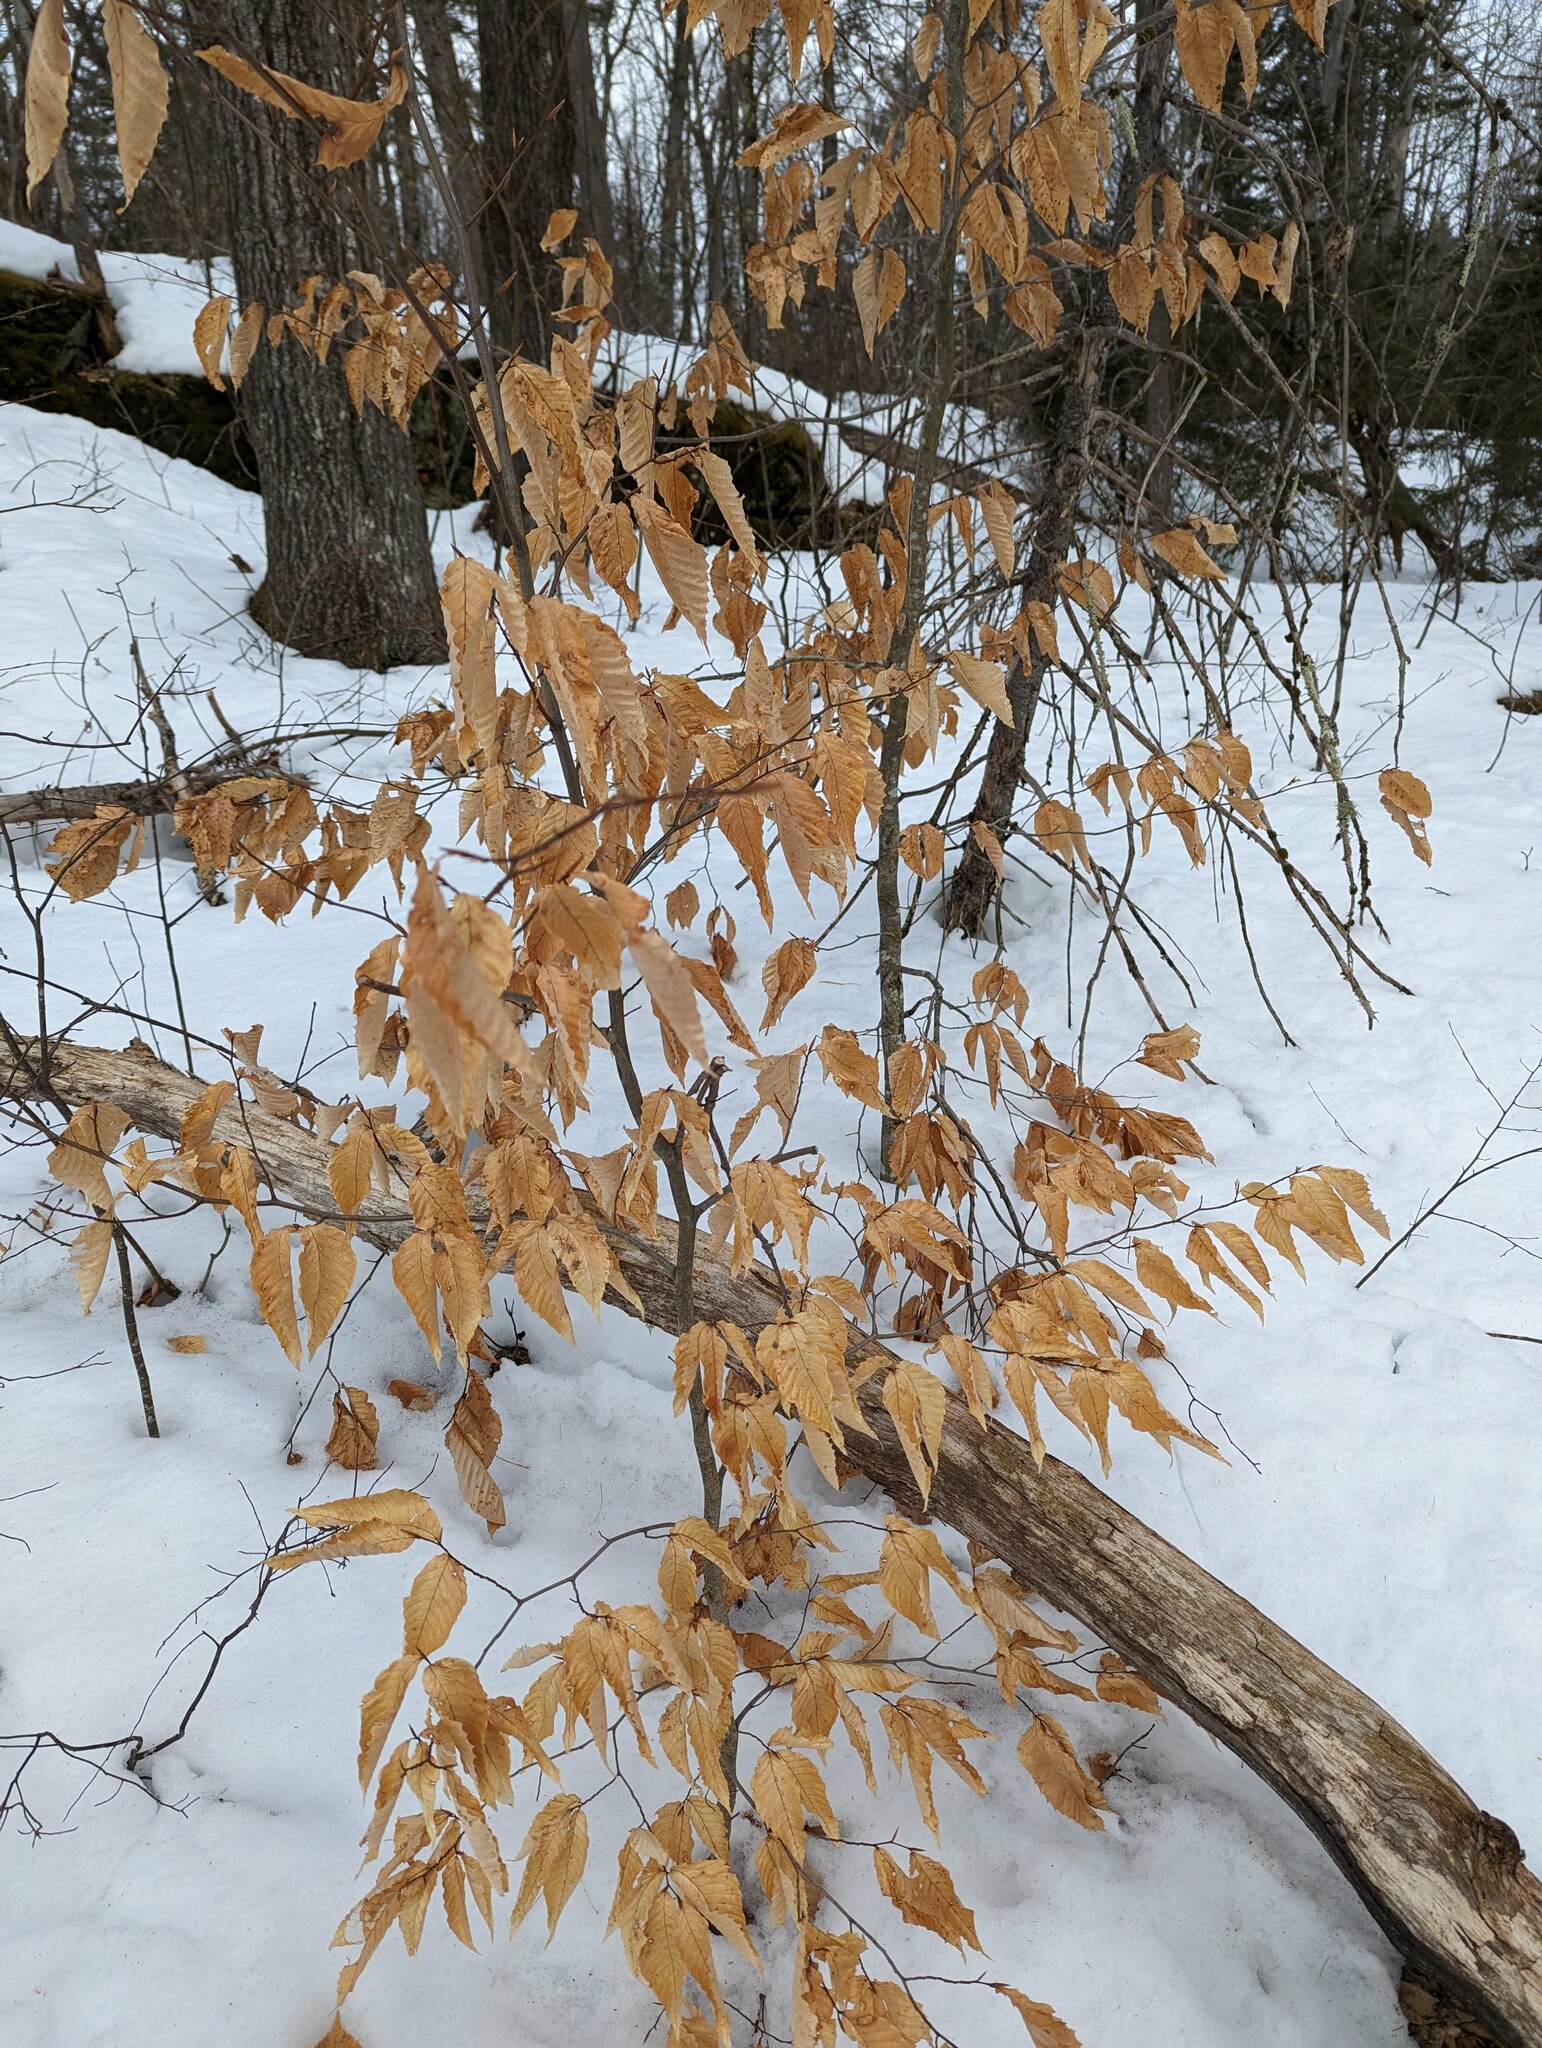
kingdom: Plantae
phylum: Tracheophyta
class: Magnoliopsida
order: Fagales
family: Fagaceae
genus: Fagus
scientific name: Fagus grandifolia
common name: American beech
